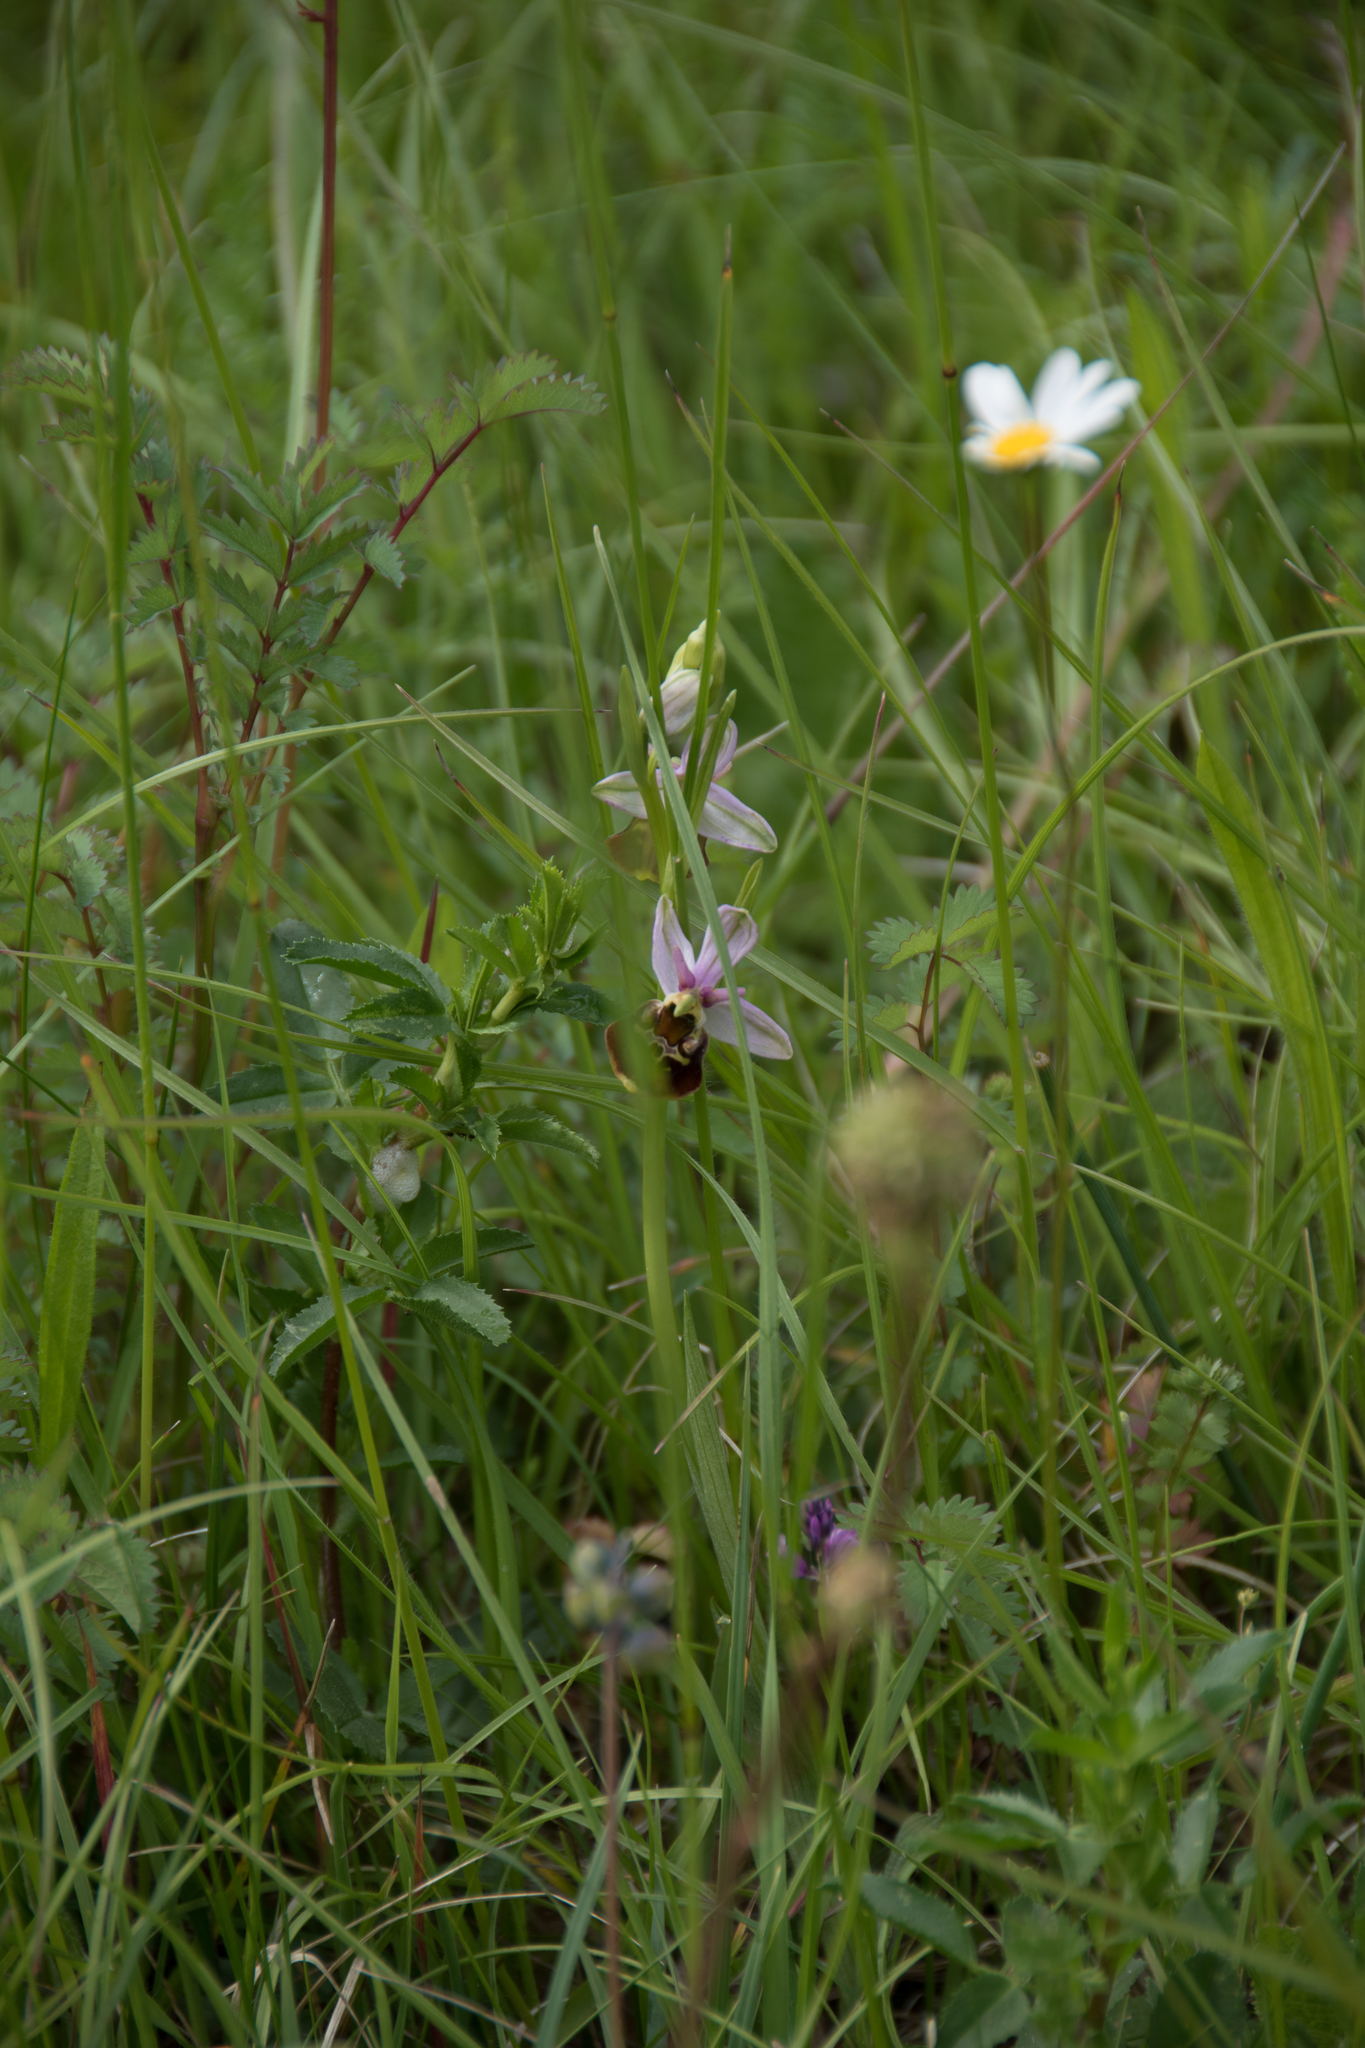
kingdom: Plantae
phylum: Tracheophyta
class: Liliopsida
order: Asparagales
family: Orchidaceae
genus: Ophrys
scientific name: Ophrys holosericea
